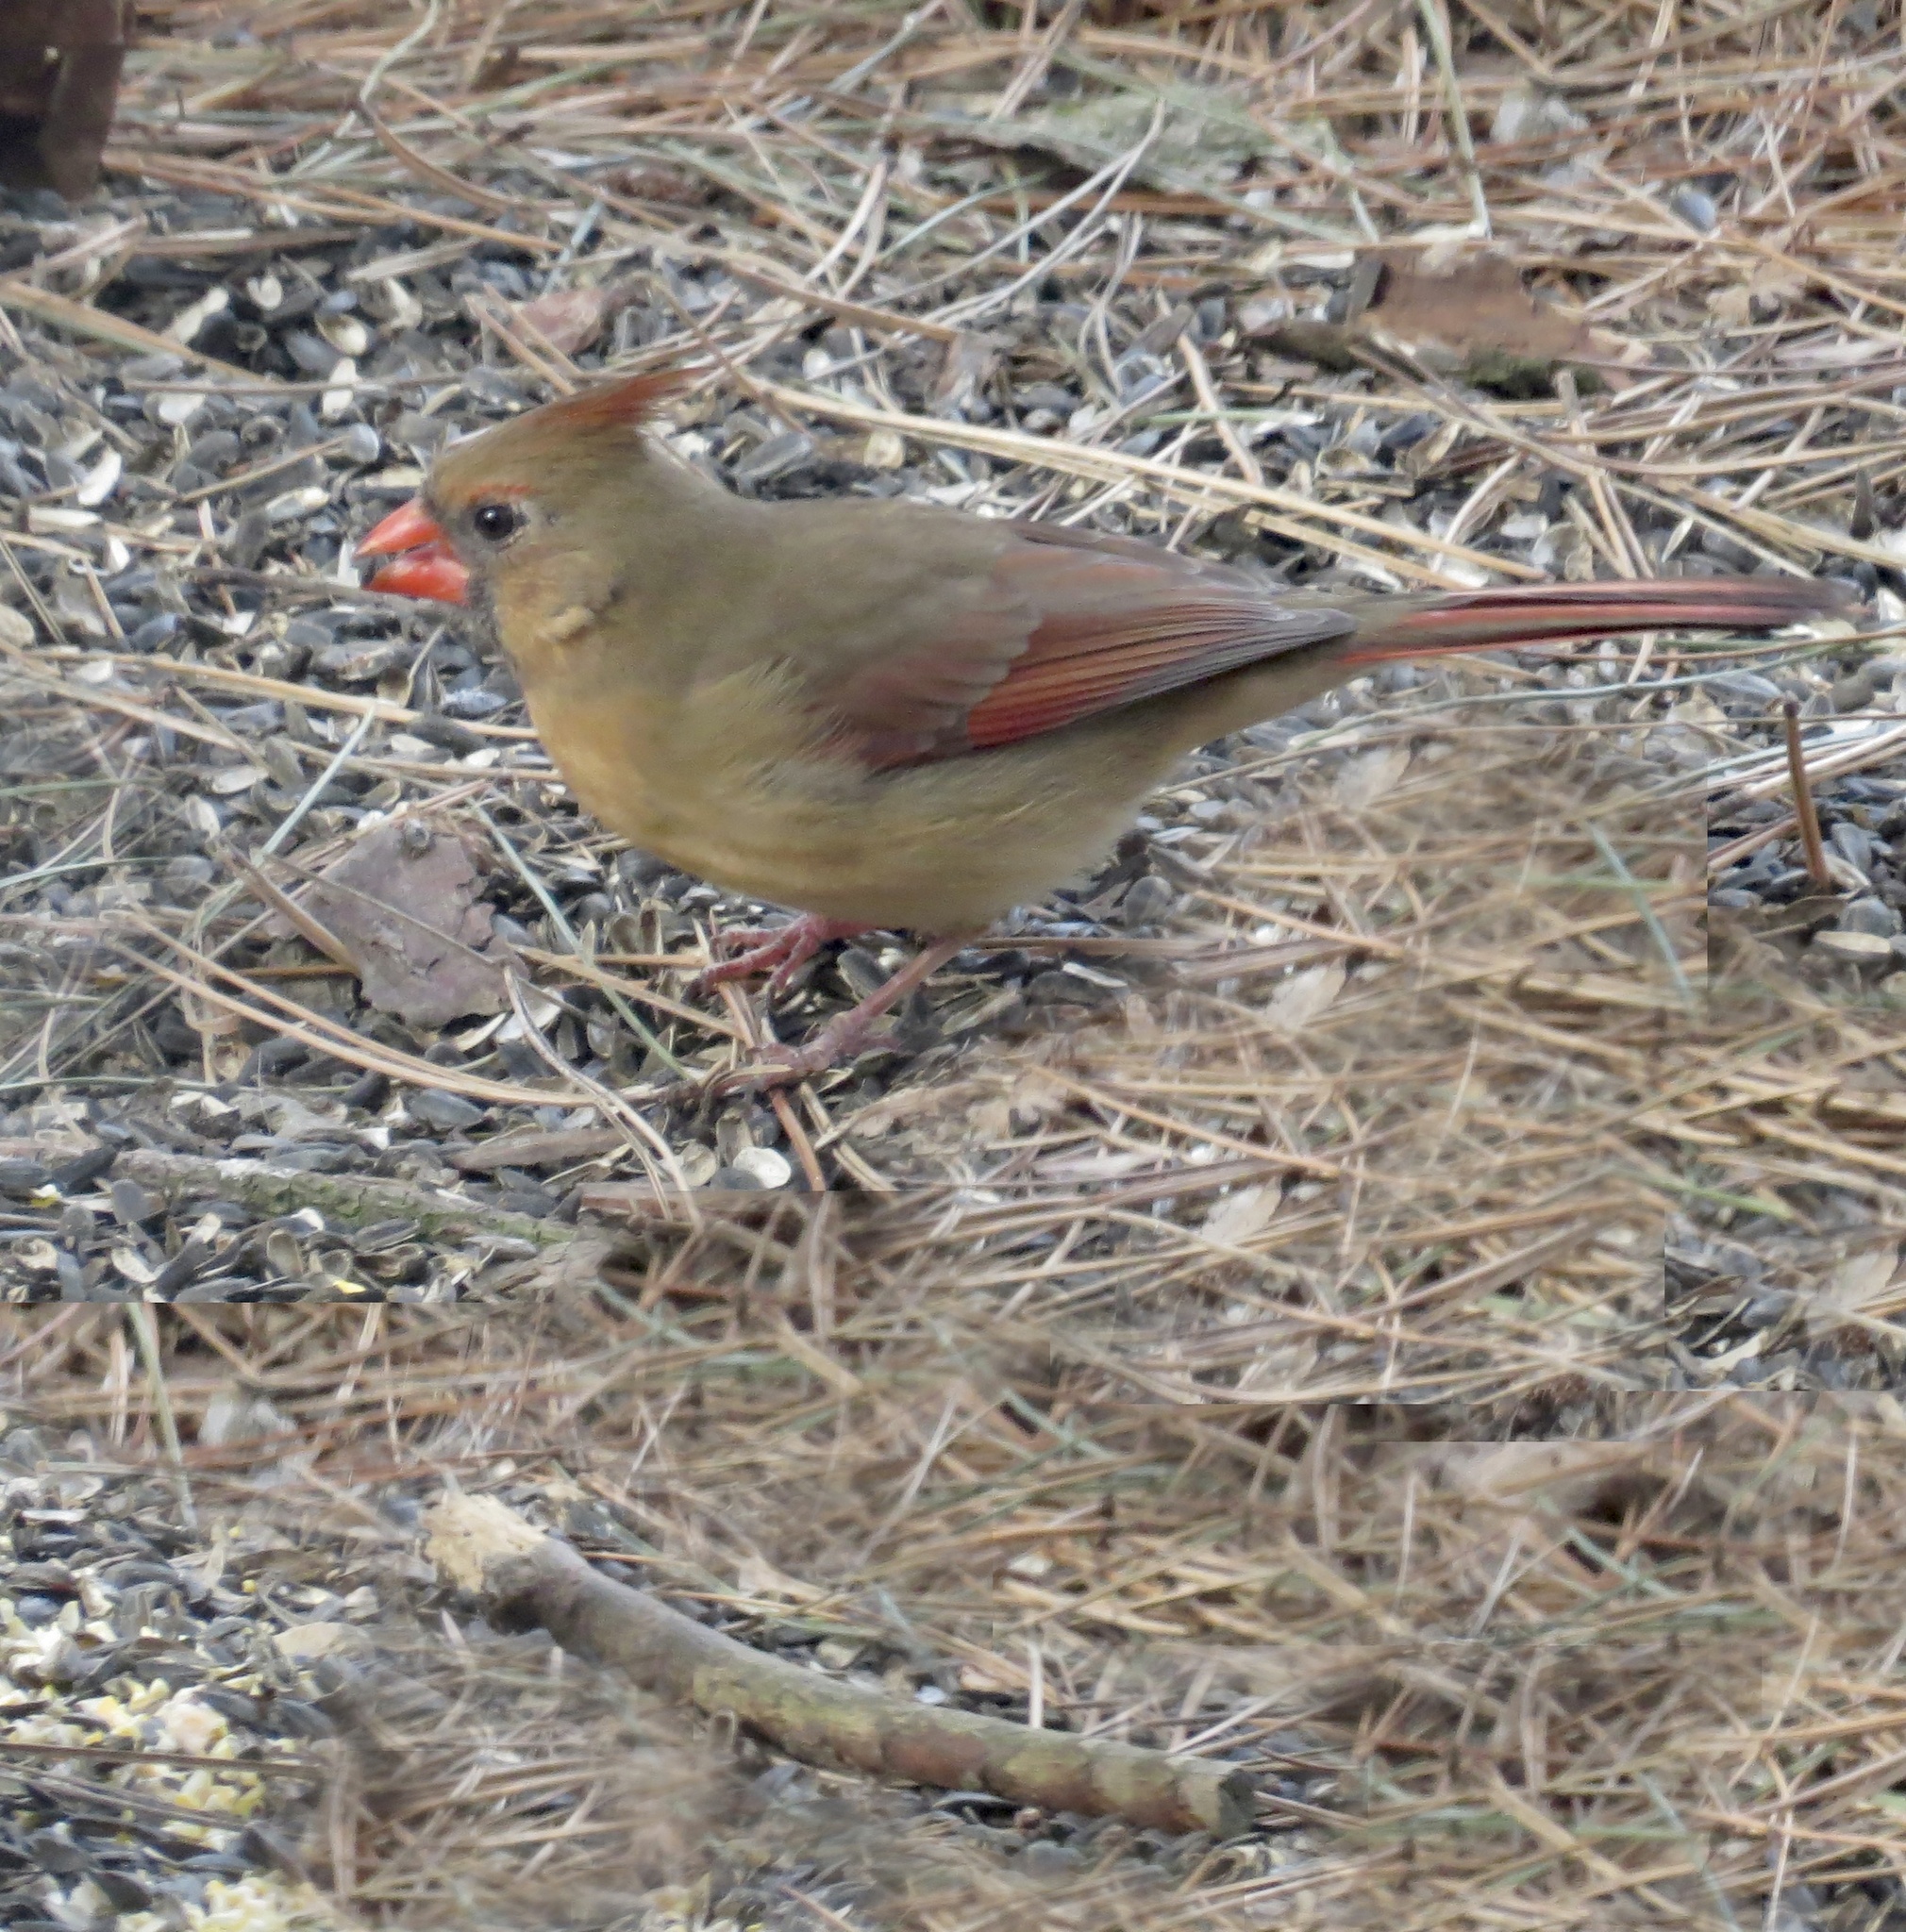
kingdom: Animalia
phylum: Chordata
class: Aves
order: Passeriformes
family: Cardinalidae
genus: Cardinalis
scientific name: Cardinalis cardinalis
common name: Northern cardinal
